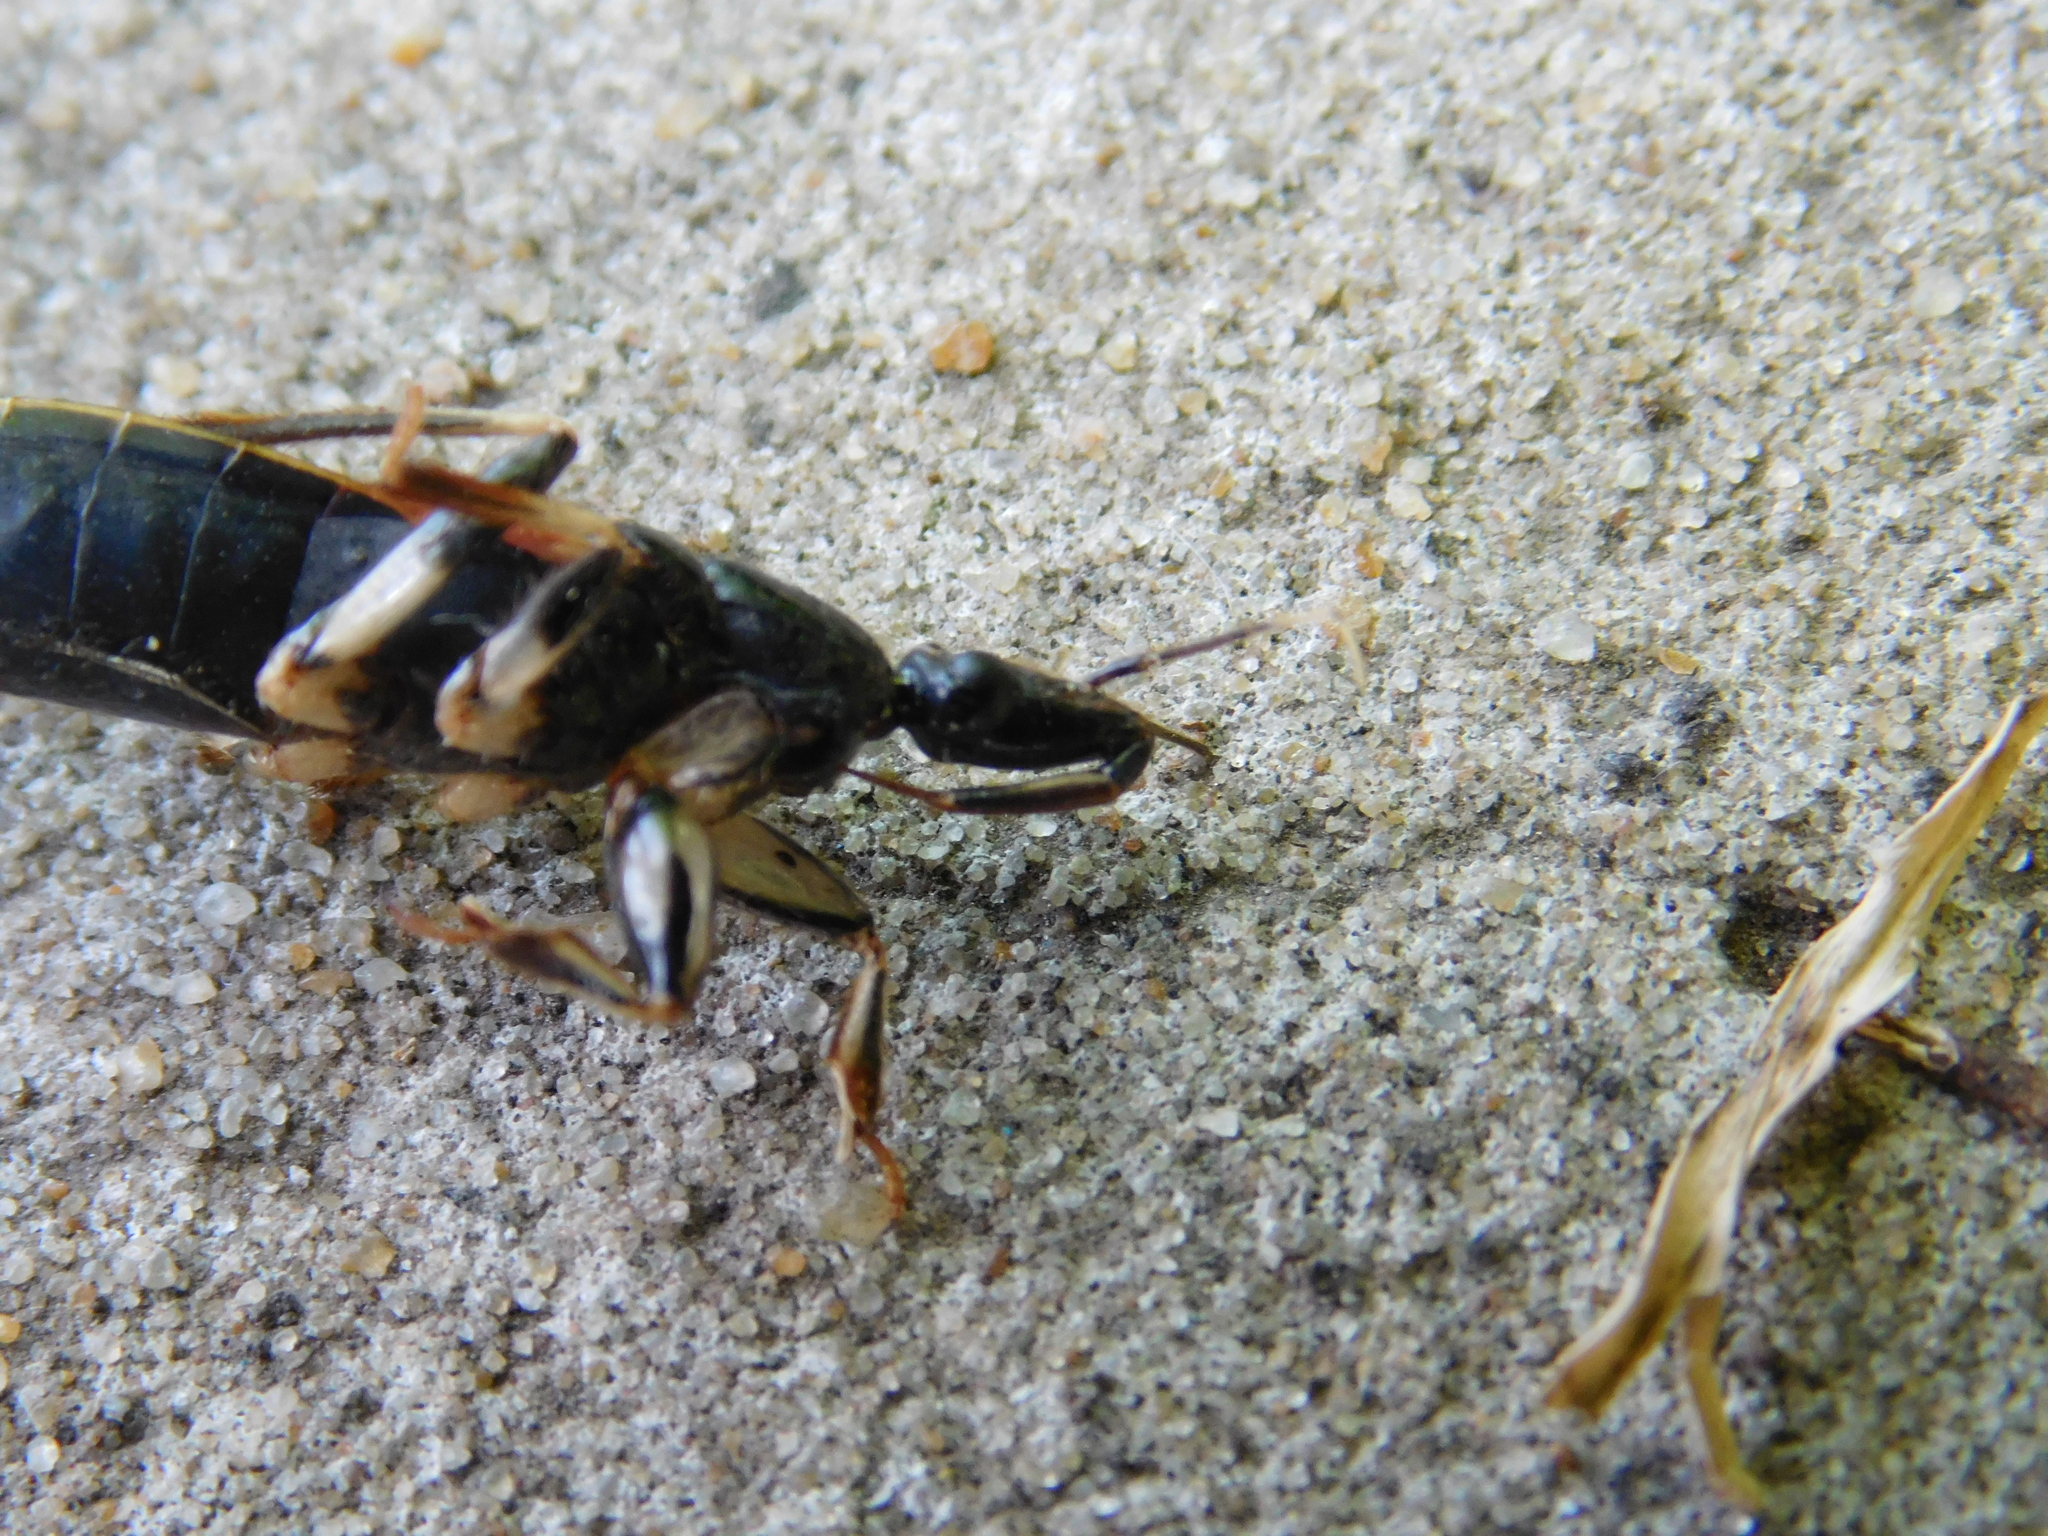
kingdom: Animalia
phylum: Arthropoda
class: Insecta
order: Hemiptera
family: Reduviidae
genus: Sirthenea
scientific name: Sirthenea stria
